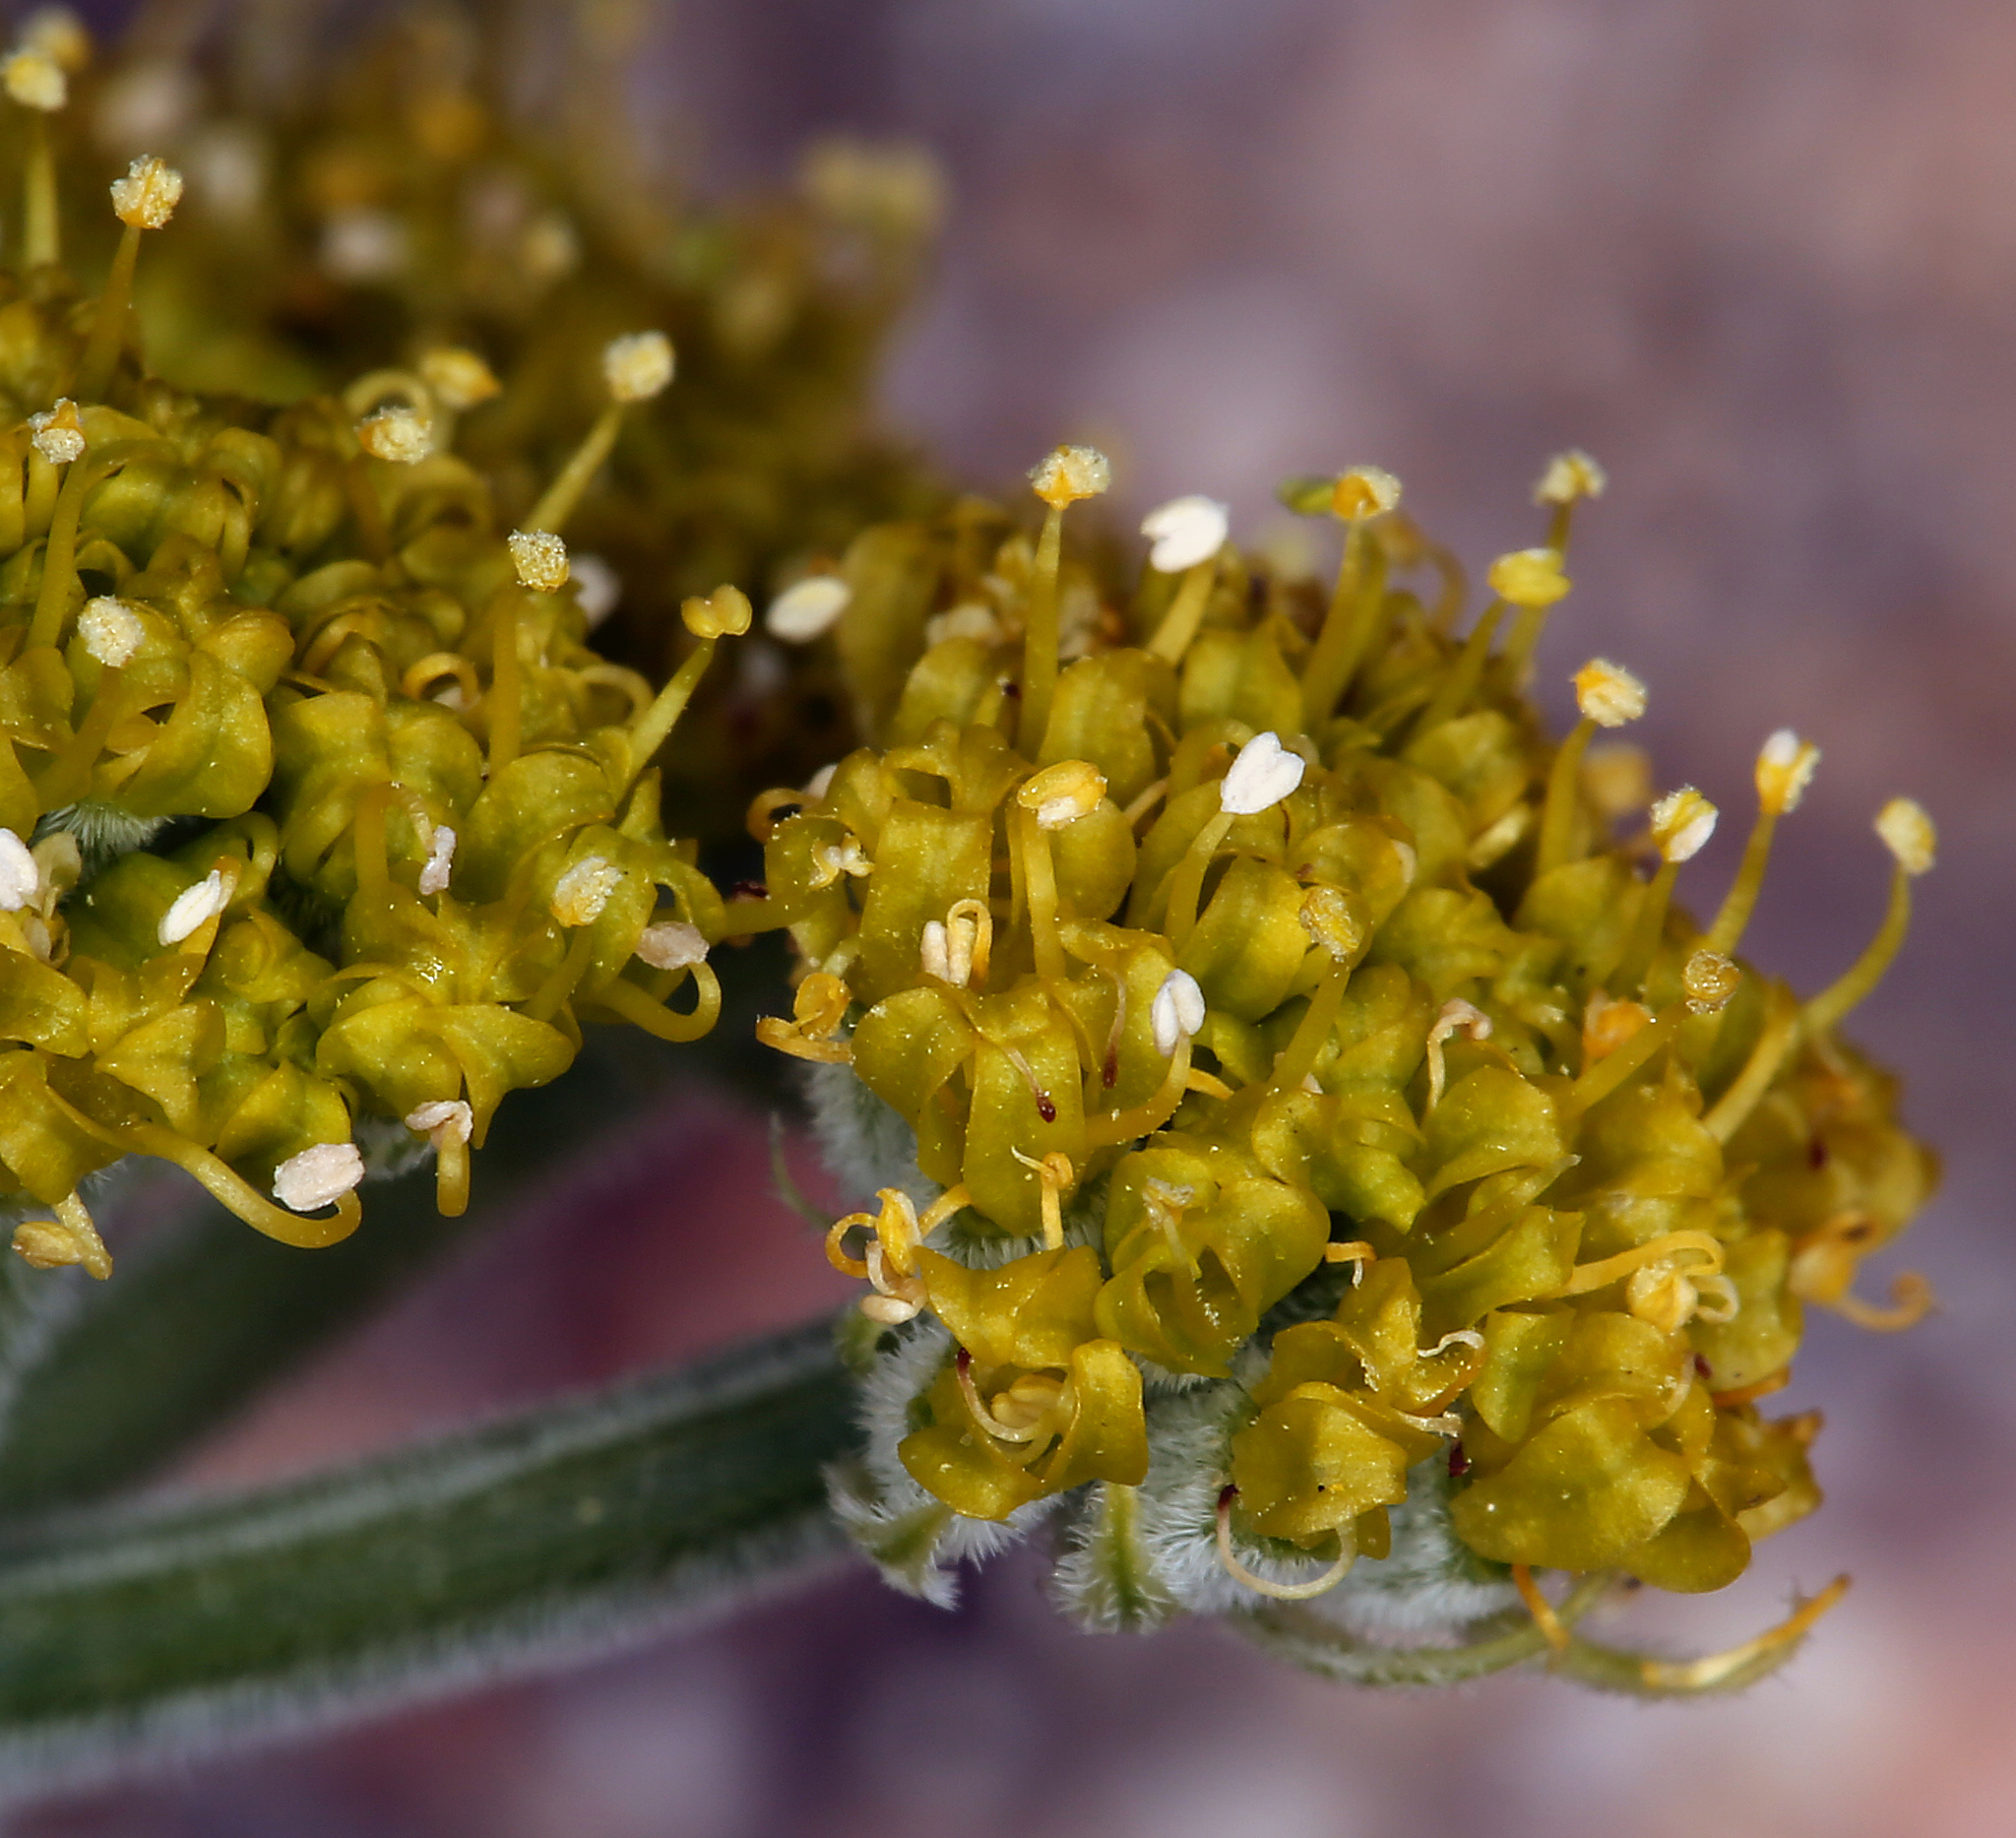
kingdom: Plantae
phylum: Tracheophyta
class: Magnoliopsida
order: Apiales
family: Apiaceae
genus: Lomatium
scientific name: Lomatium mohavense
